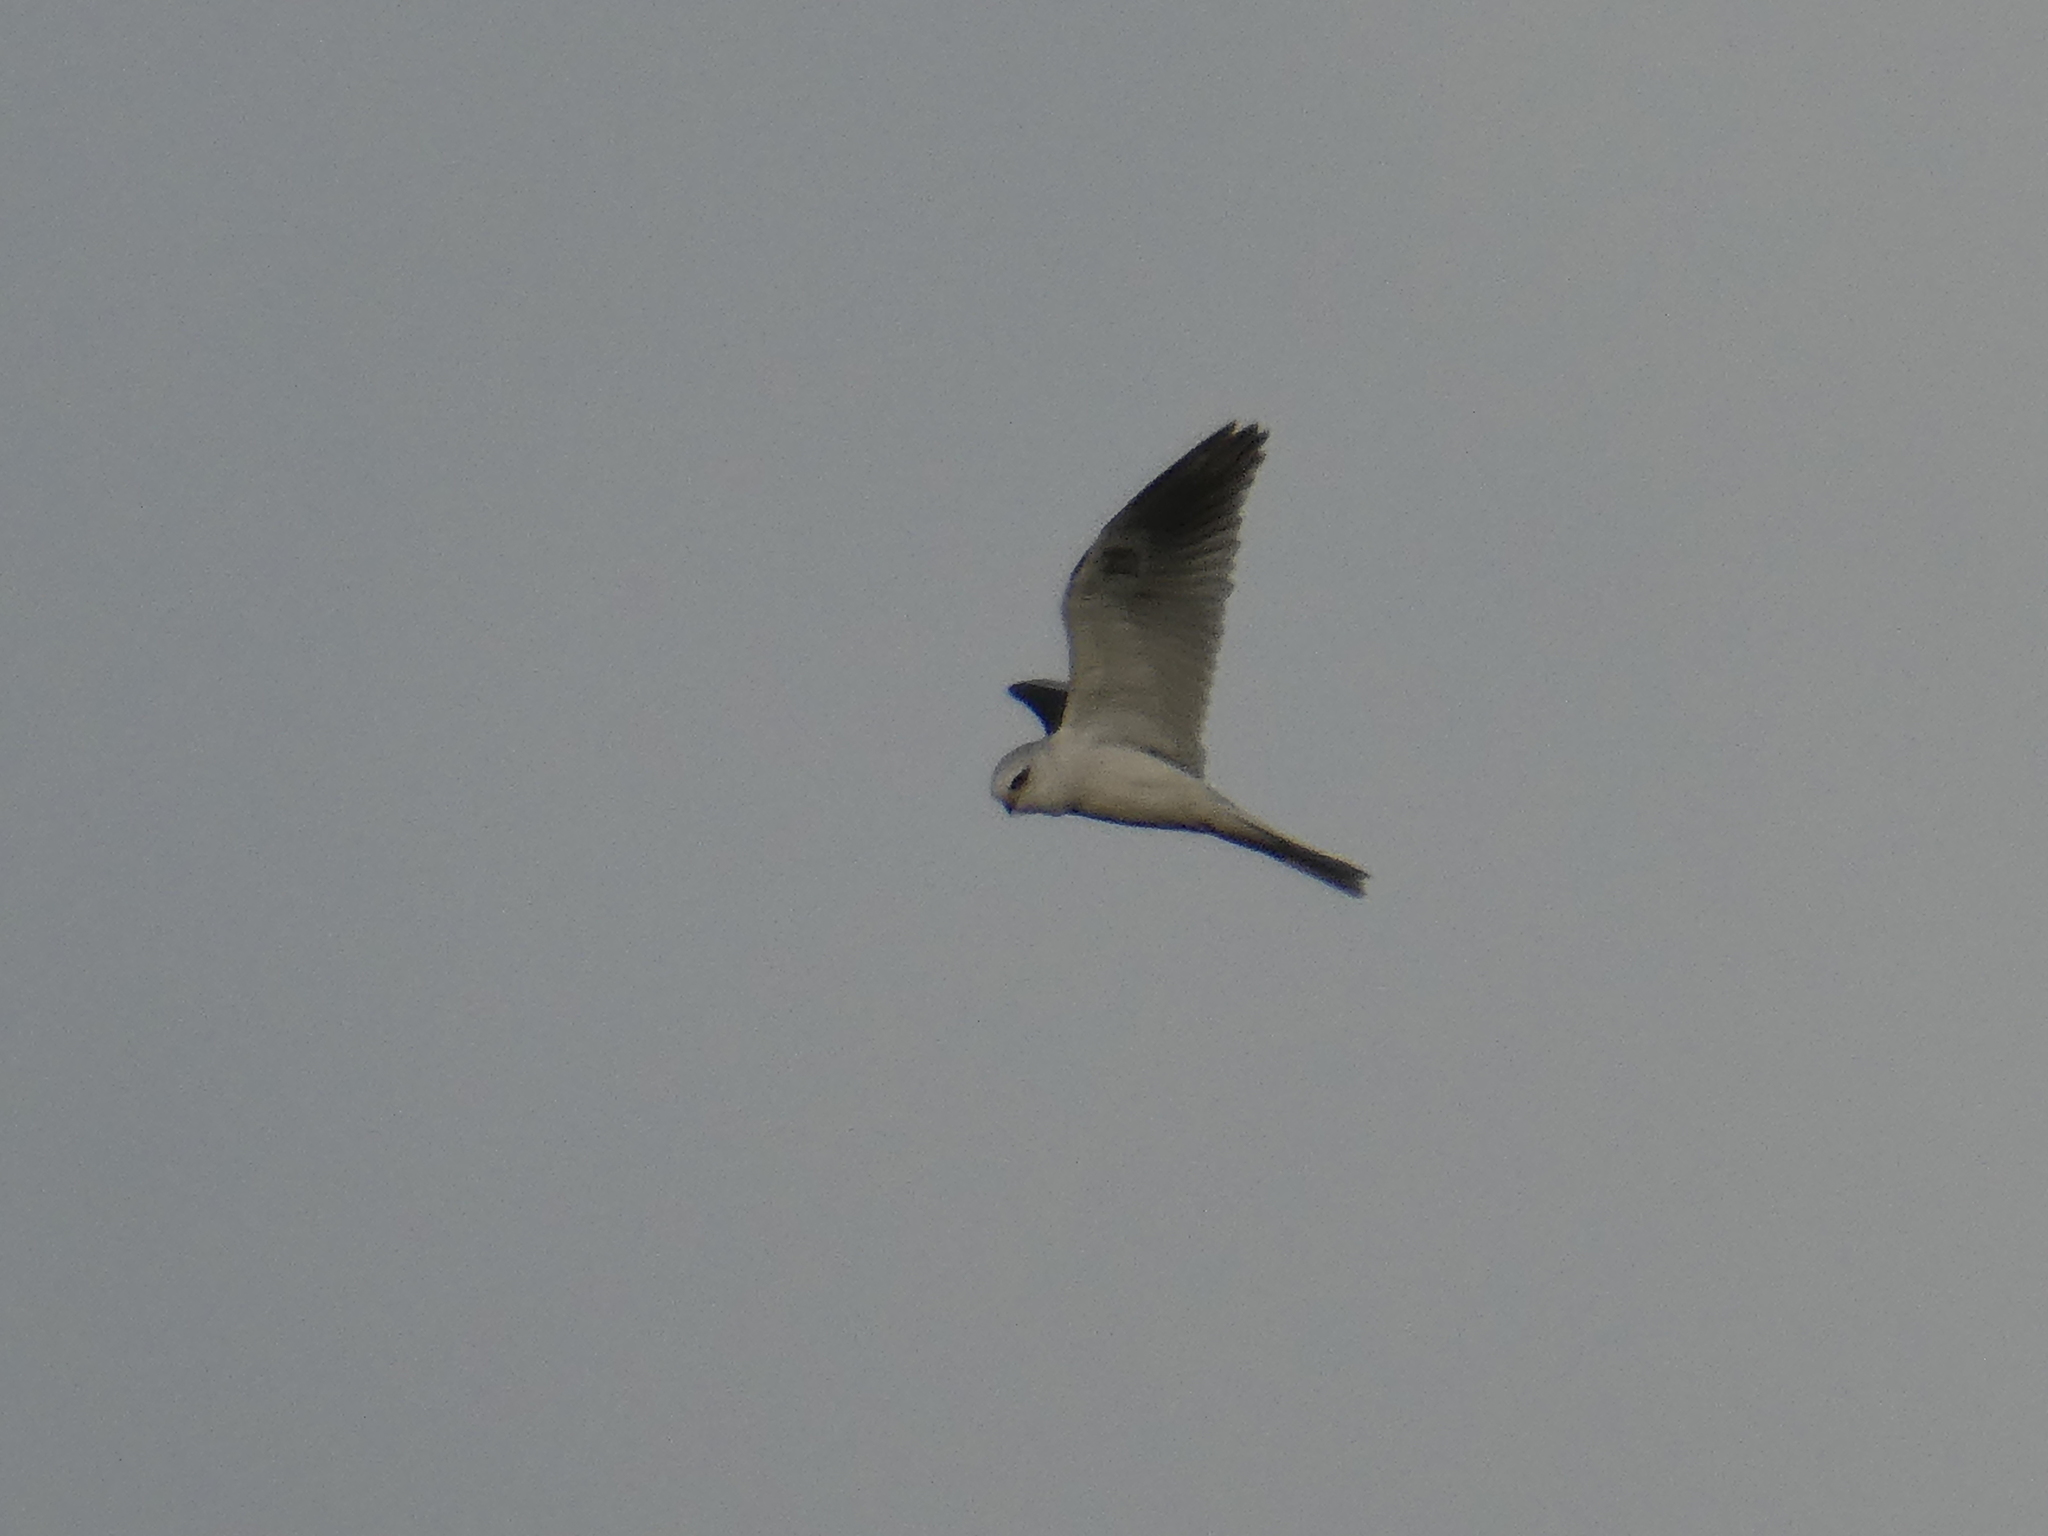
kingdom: Animalia
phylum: Chordata
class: Aves
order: Accipitriformes
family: Accipitridae
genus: Elanus
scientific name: Elanus leucurus
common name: White-tailed kite
